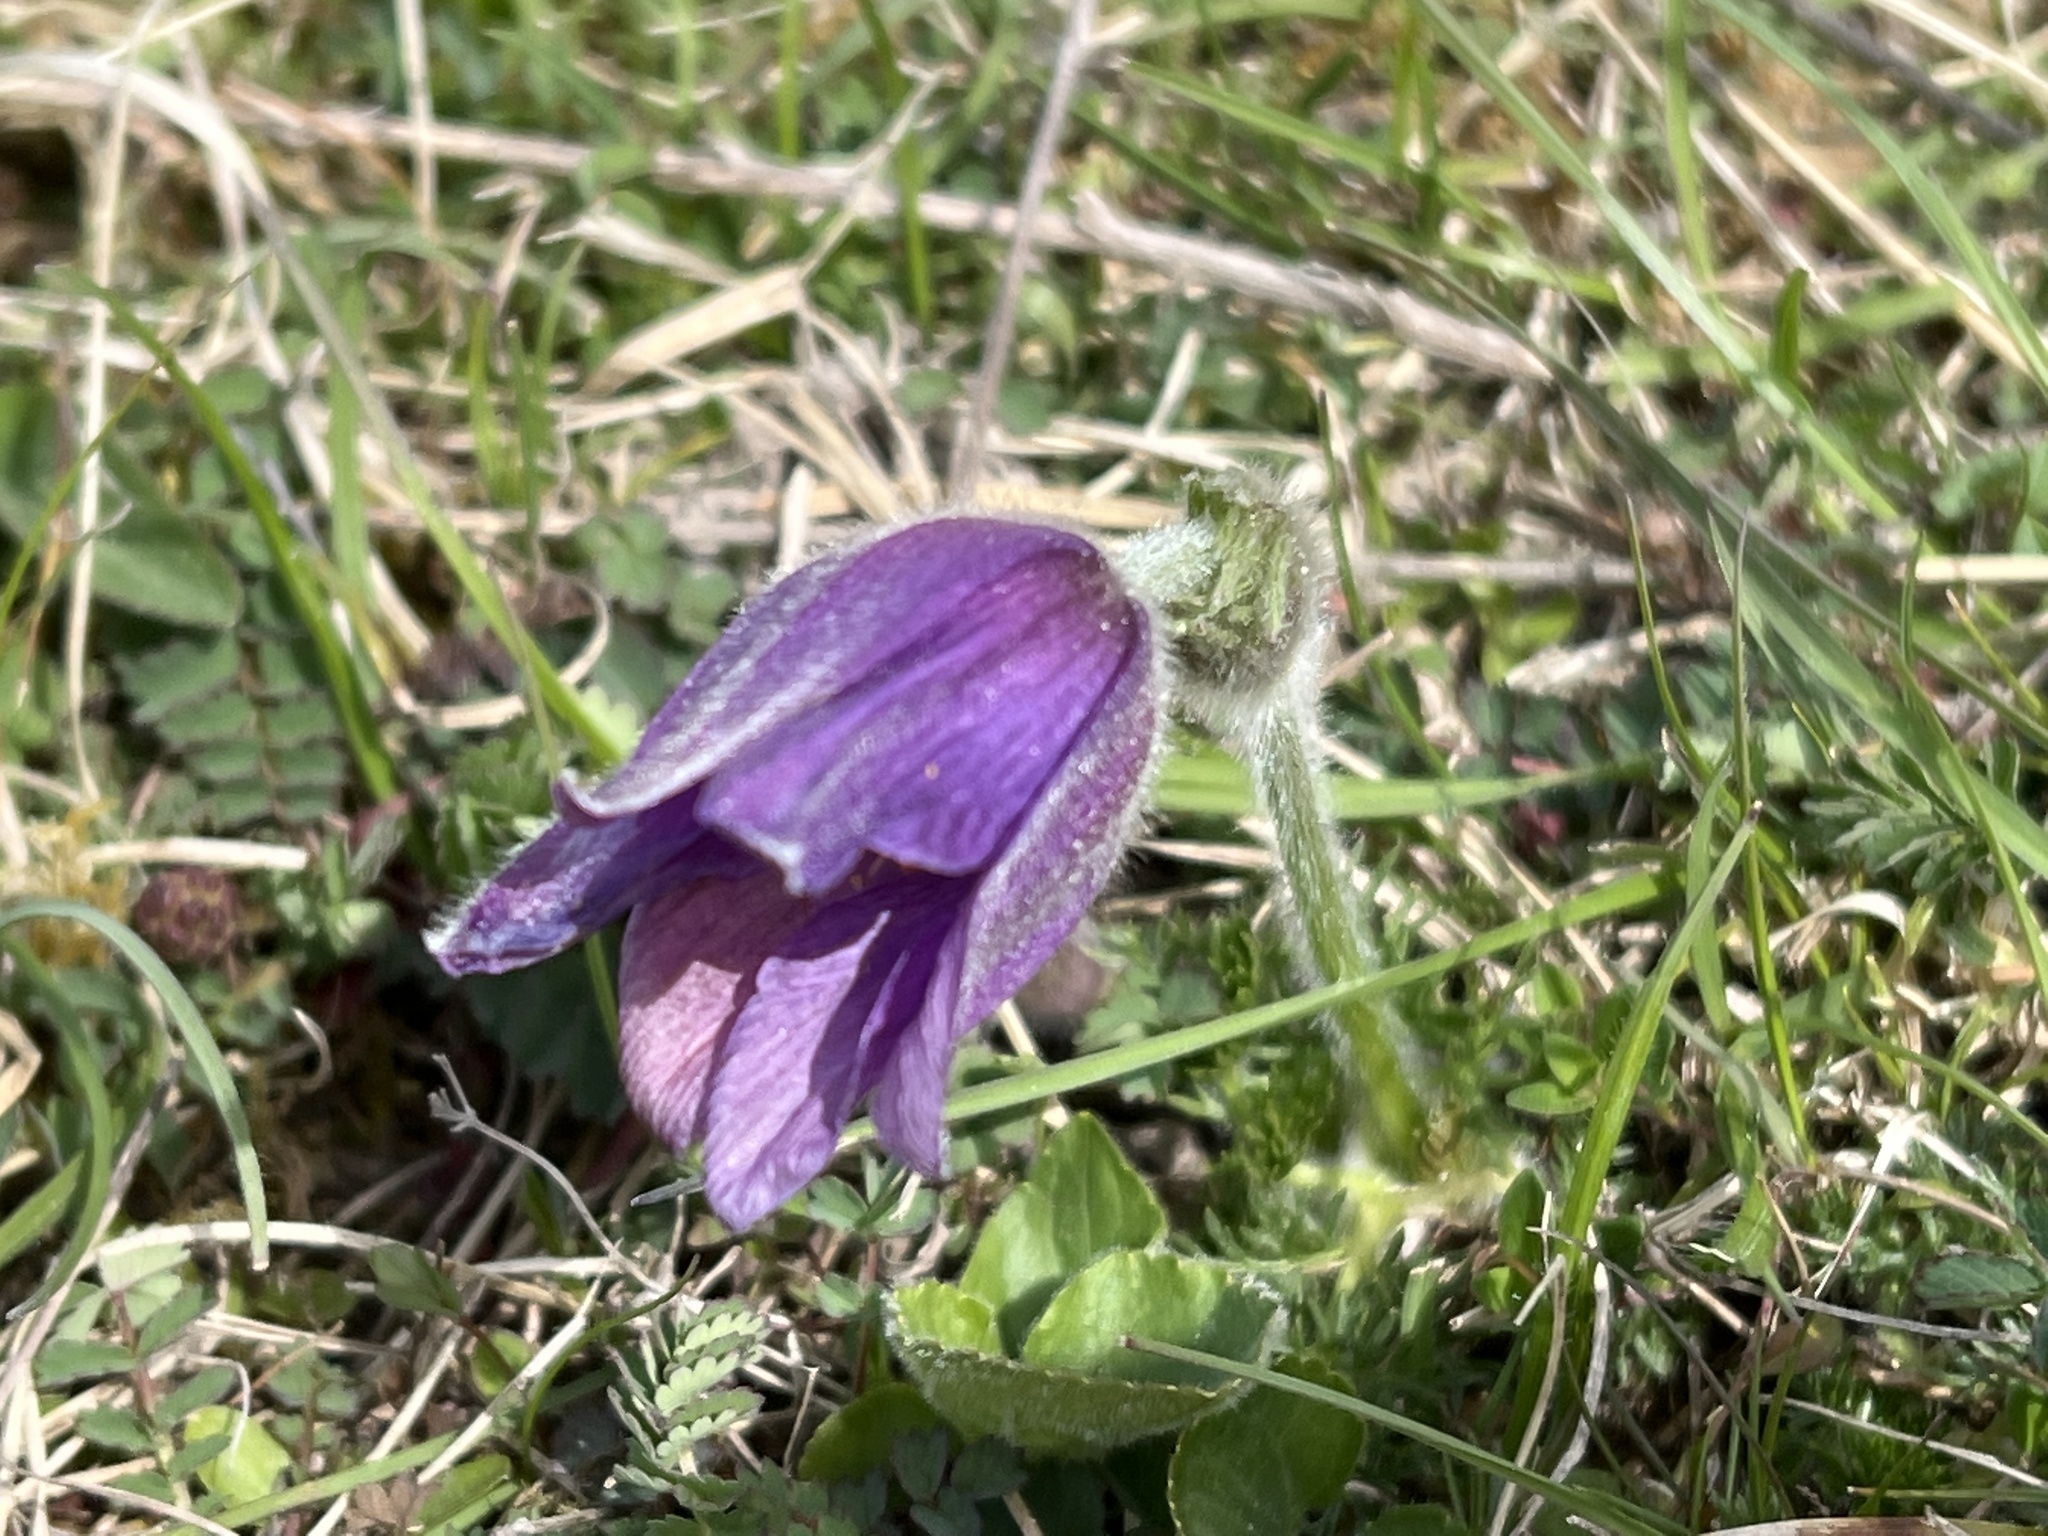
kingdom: Plantae
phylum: Tracheophyta
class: Magnoliopsida
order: Ranunculales
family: Ranunculaceae
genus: Pulsatilla
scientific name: Pulsatilla vulgaris
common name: Pasqueflower
